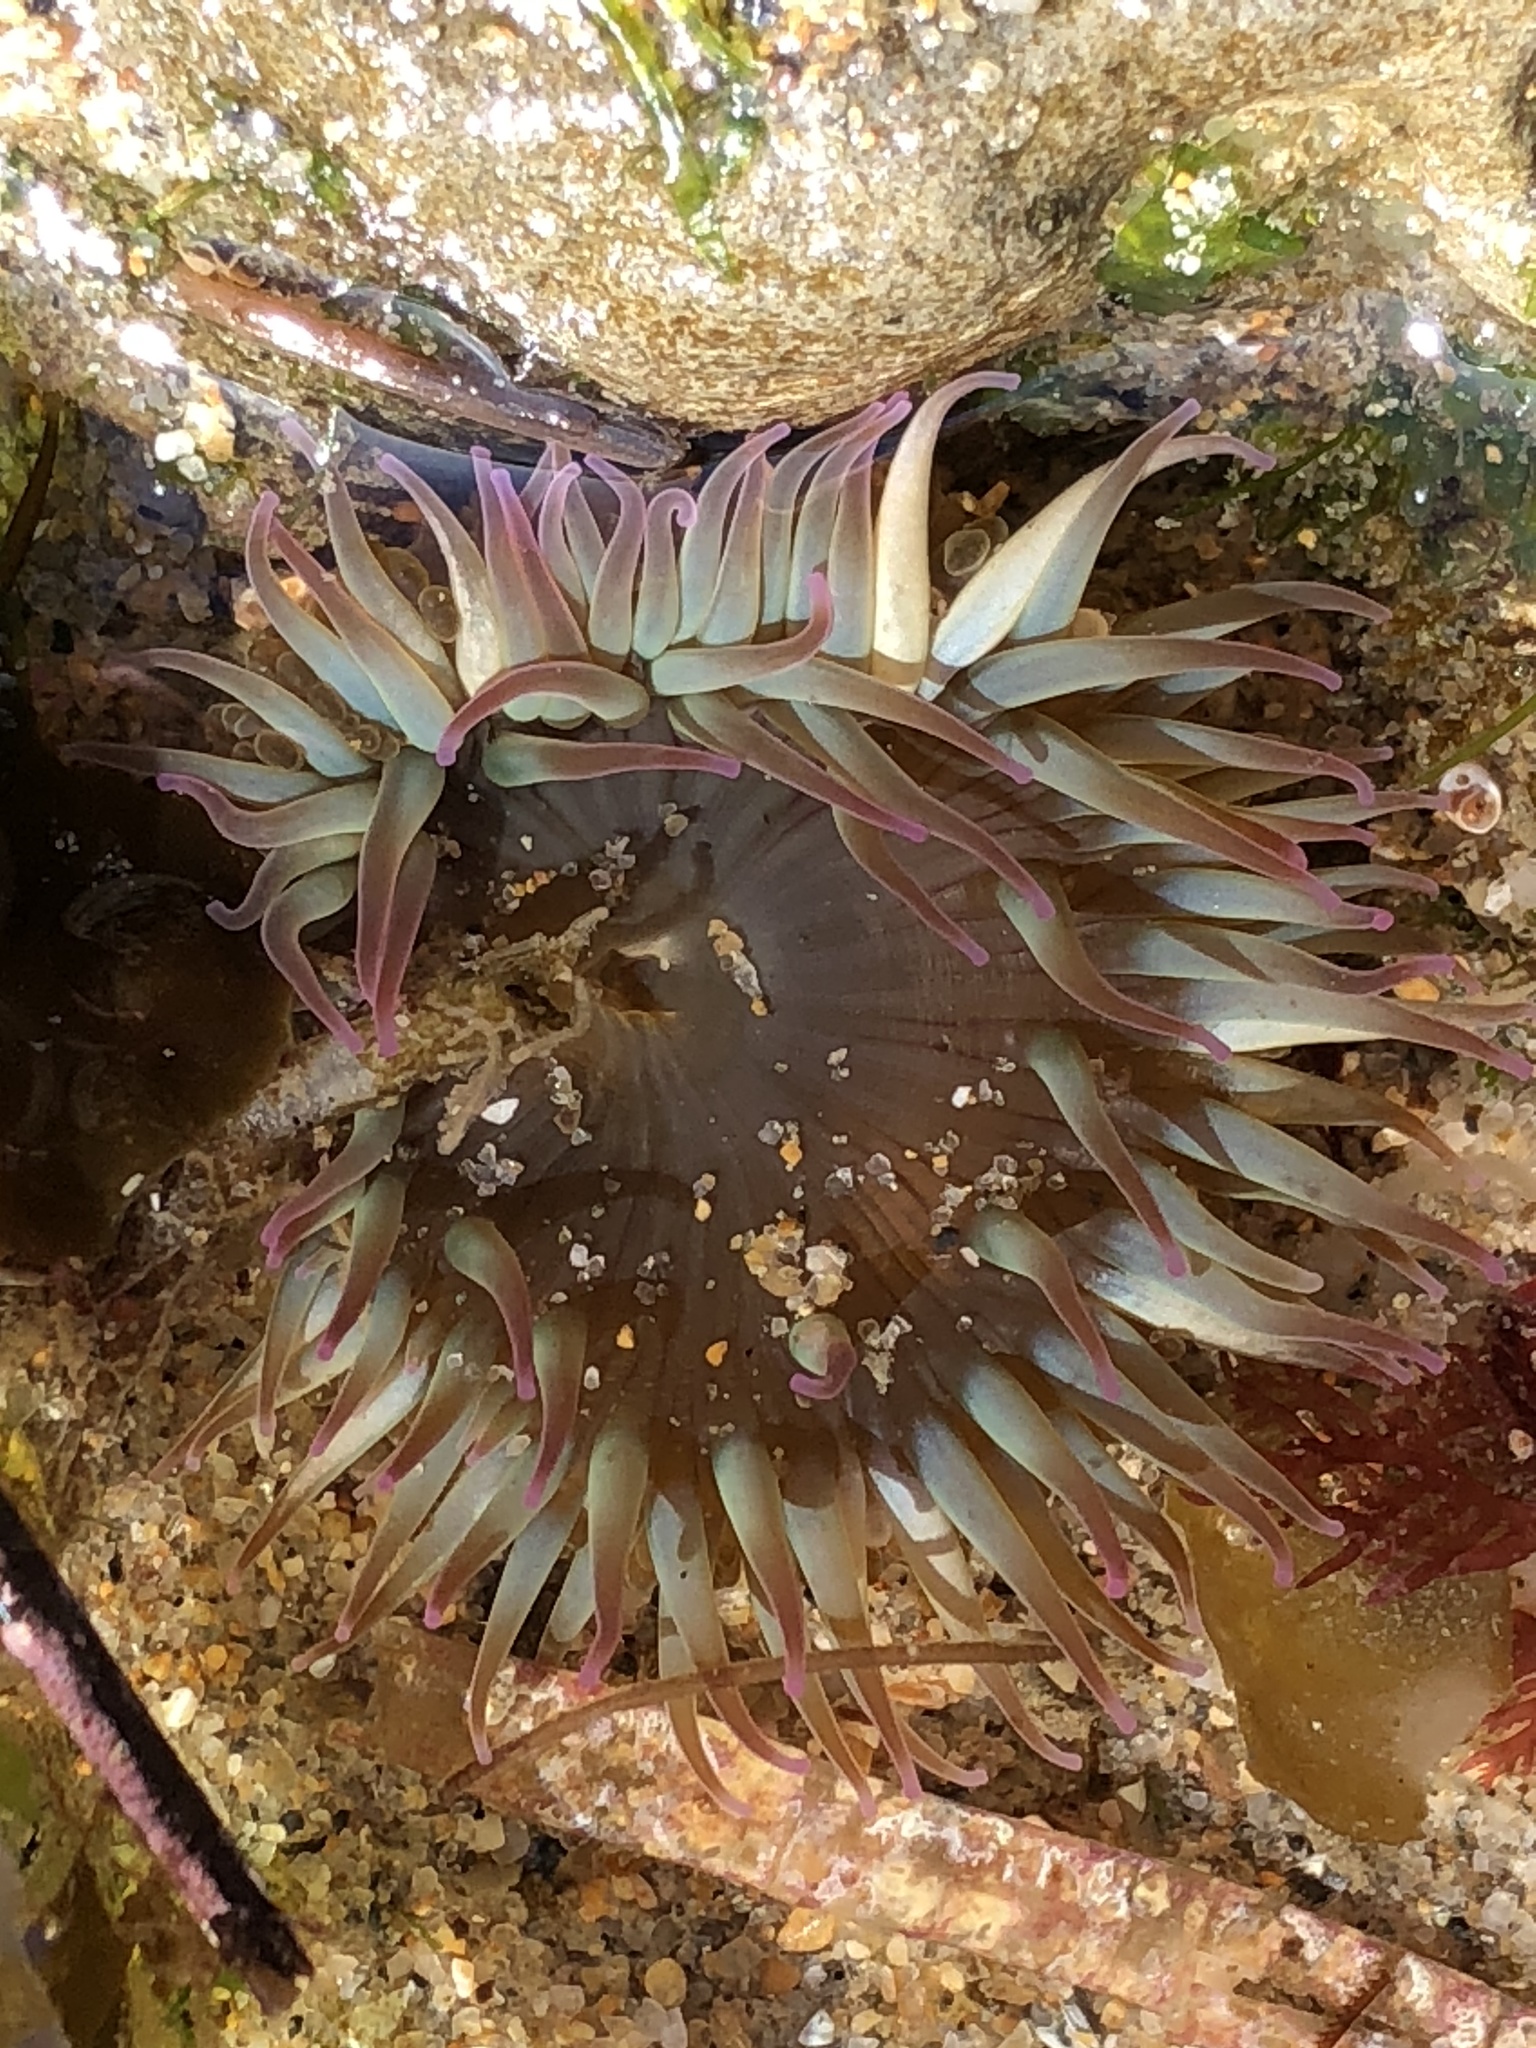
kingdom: Animalia
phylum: Cnidaria
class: Anthozoa
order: Actiniaria
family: Actiniidae
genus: Anthopleura
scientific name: Anthopleura elegantissima
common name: Clonal anemone
